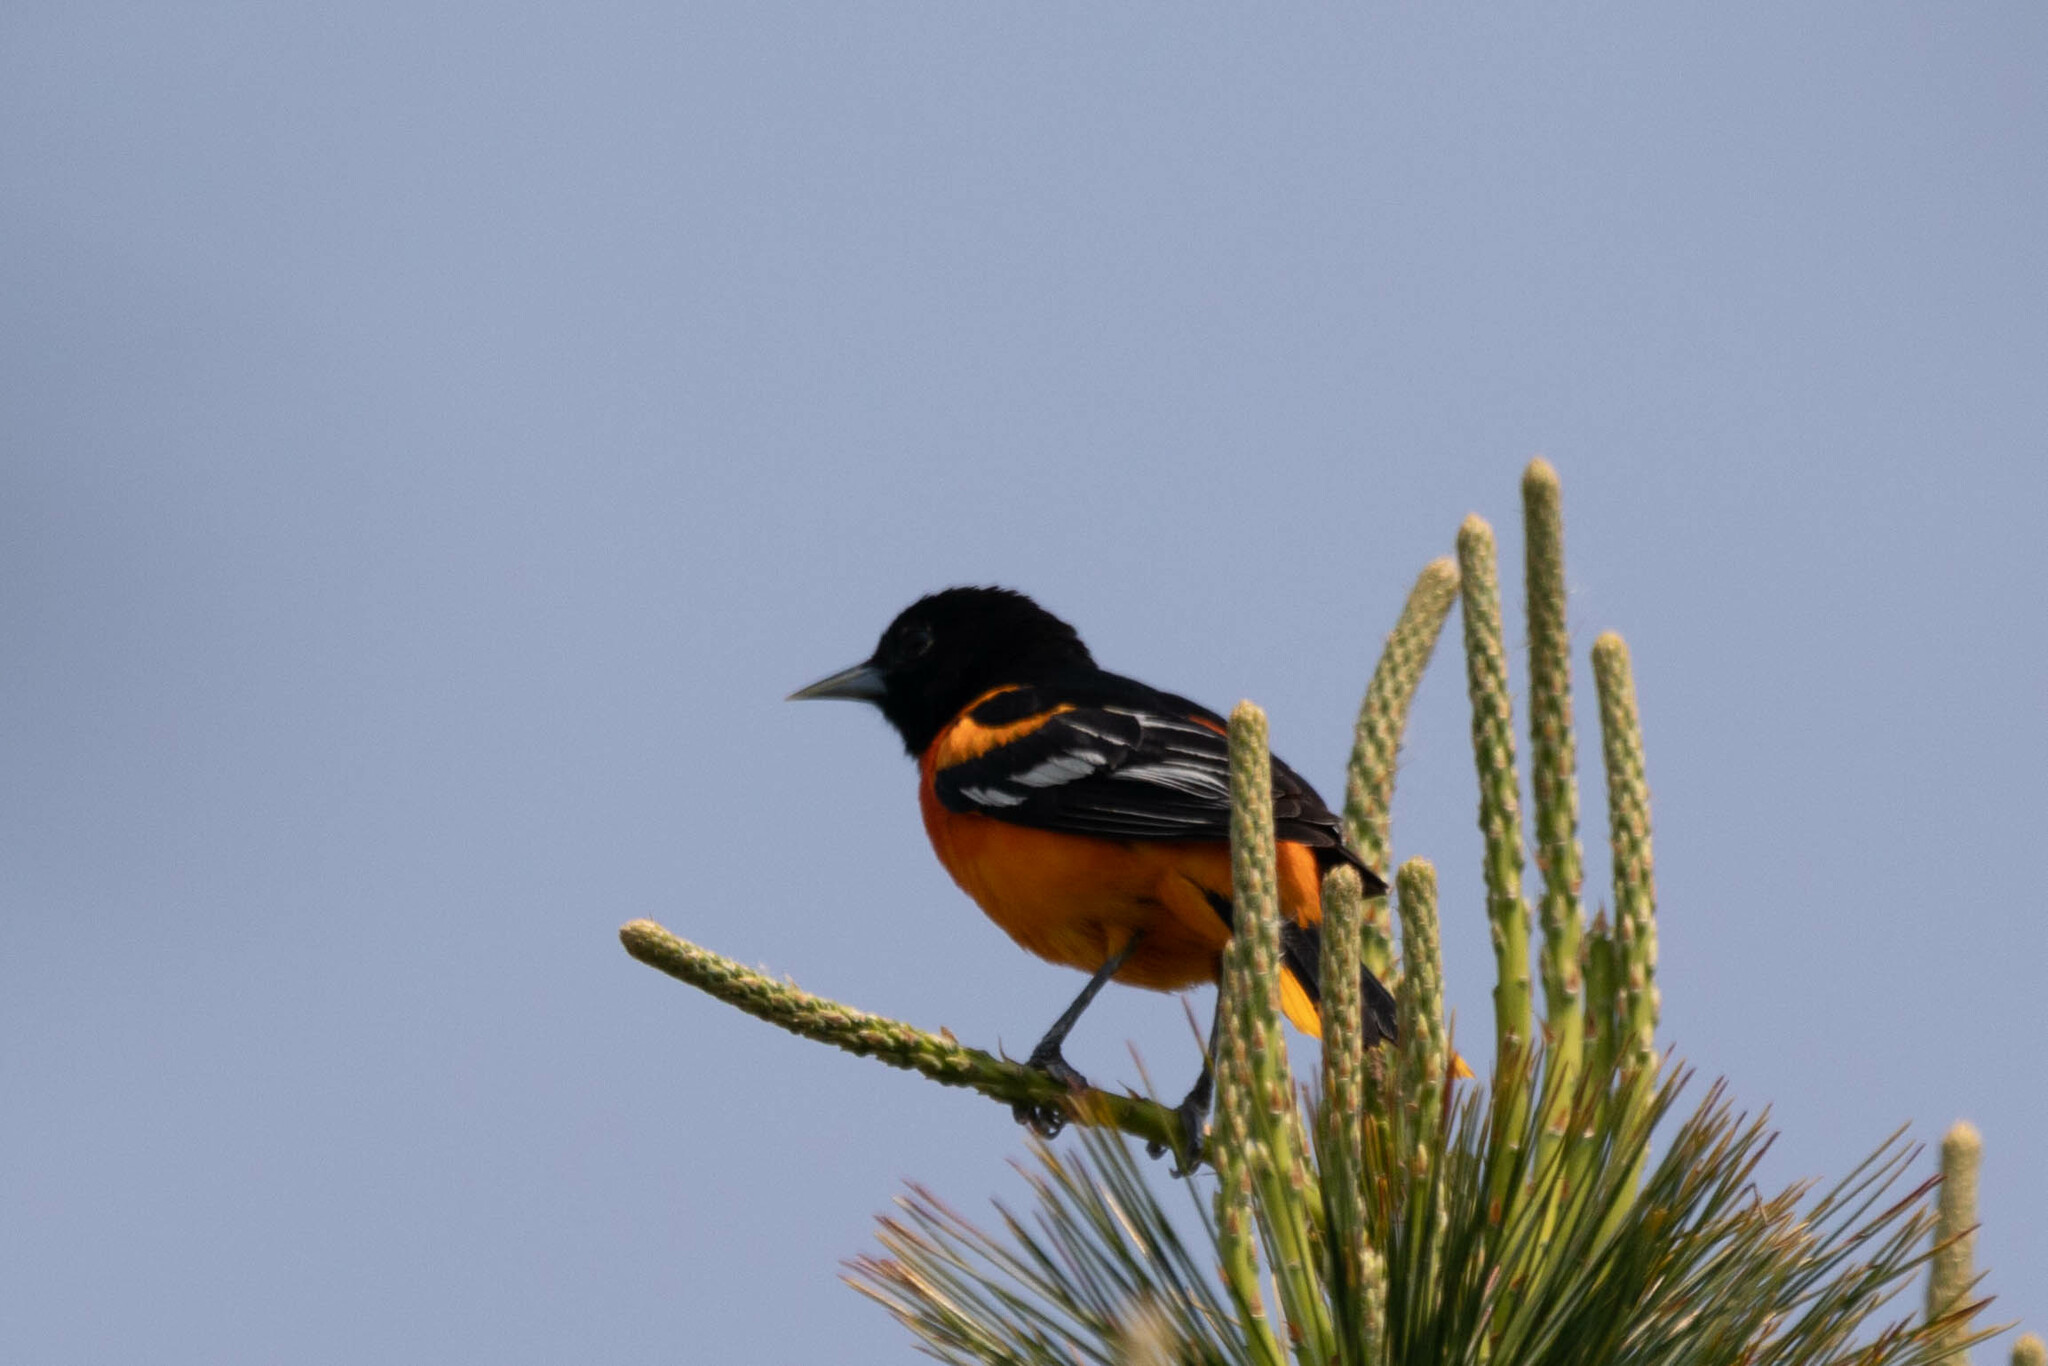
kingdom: Animalia
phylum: Chordata
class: Aves
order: Passeriformes
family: Icteridae
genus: Icterus
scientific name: Icterus galbula
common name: Baltimore oriole
